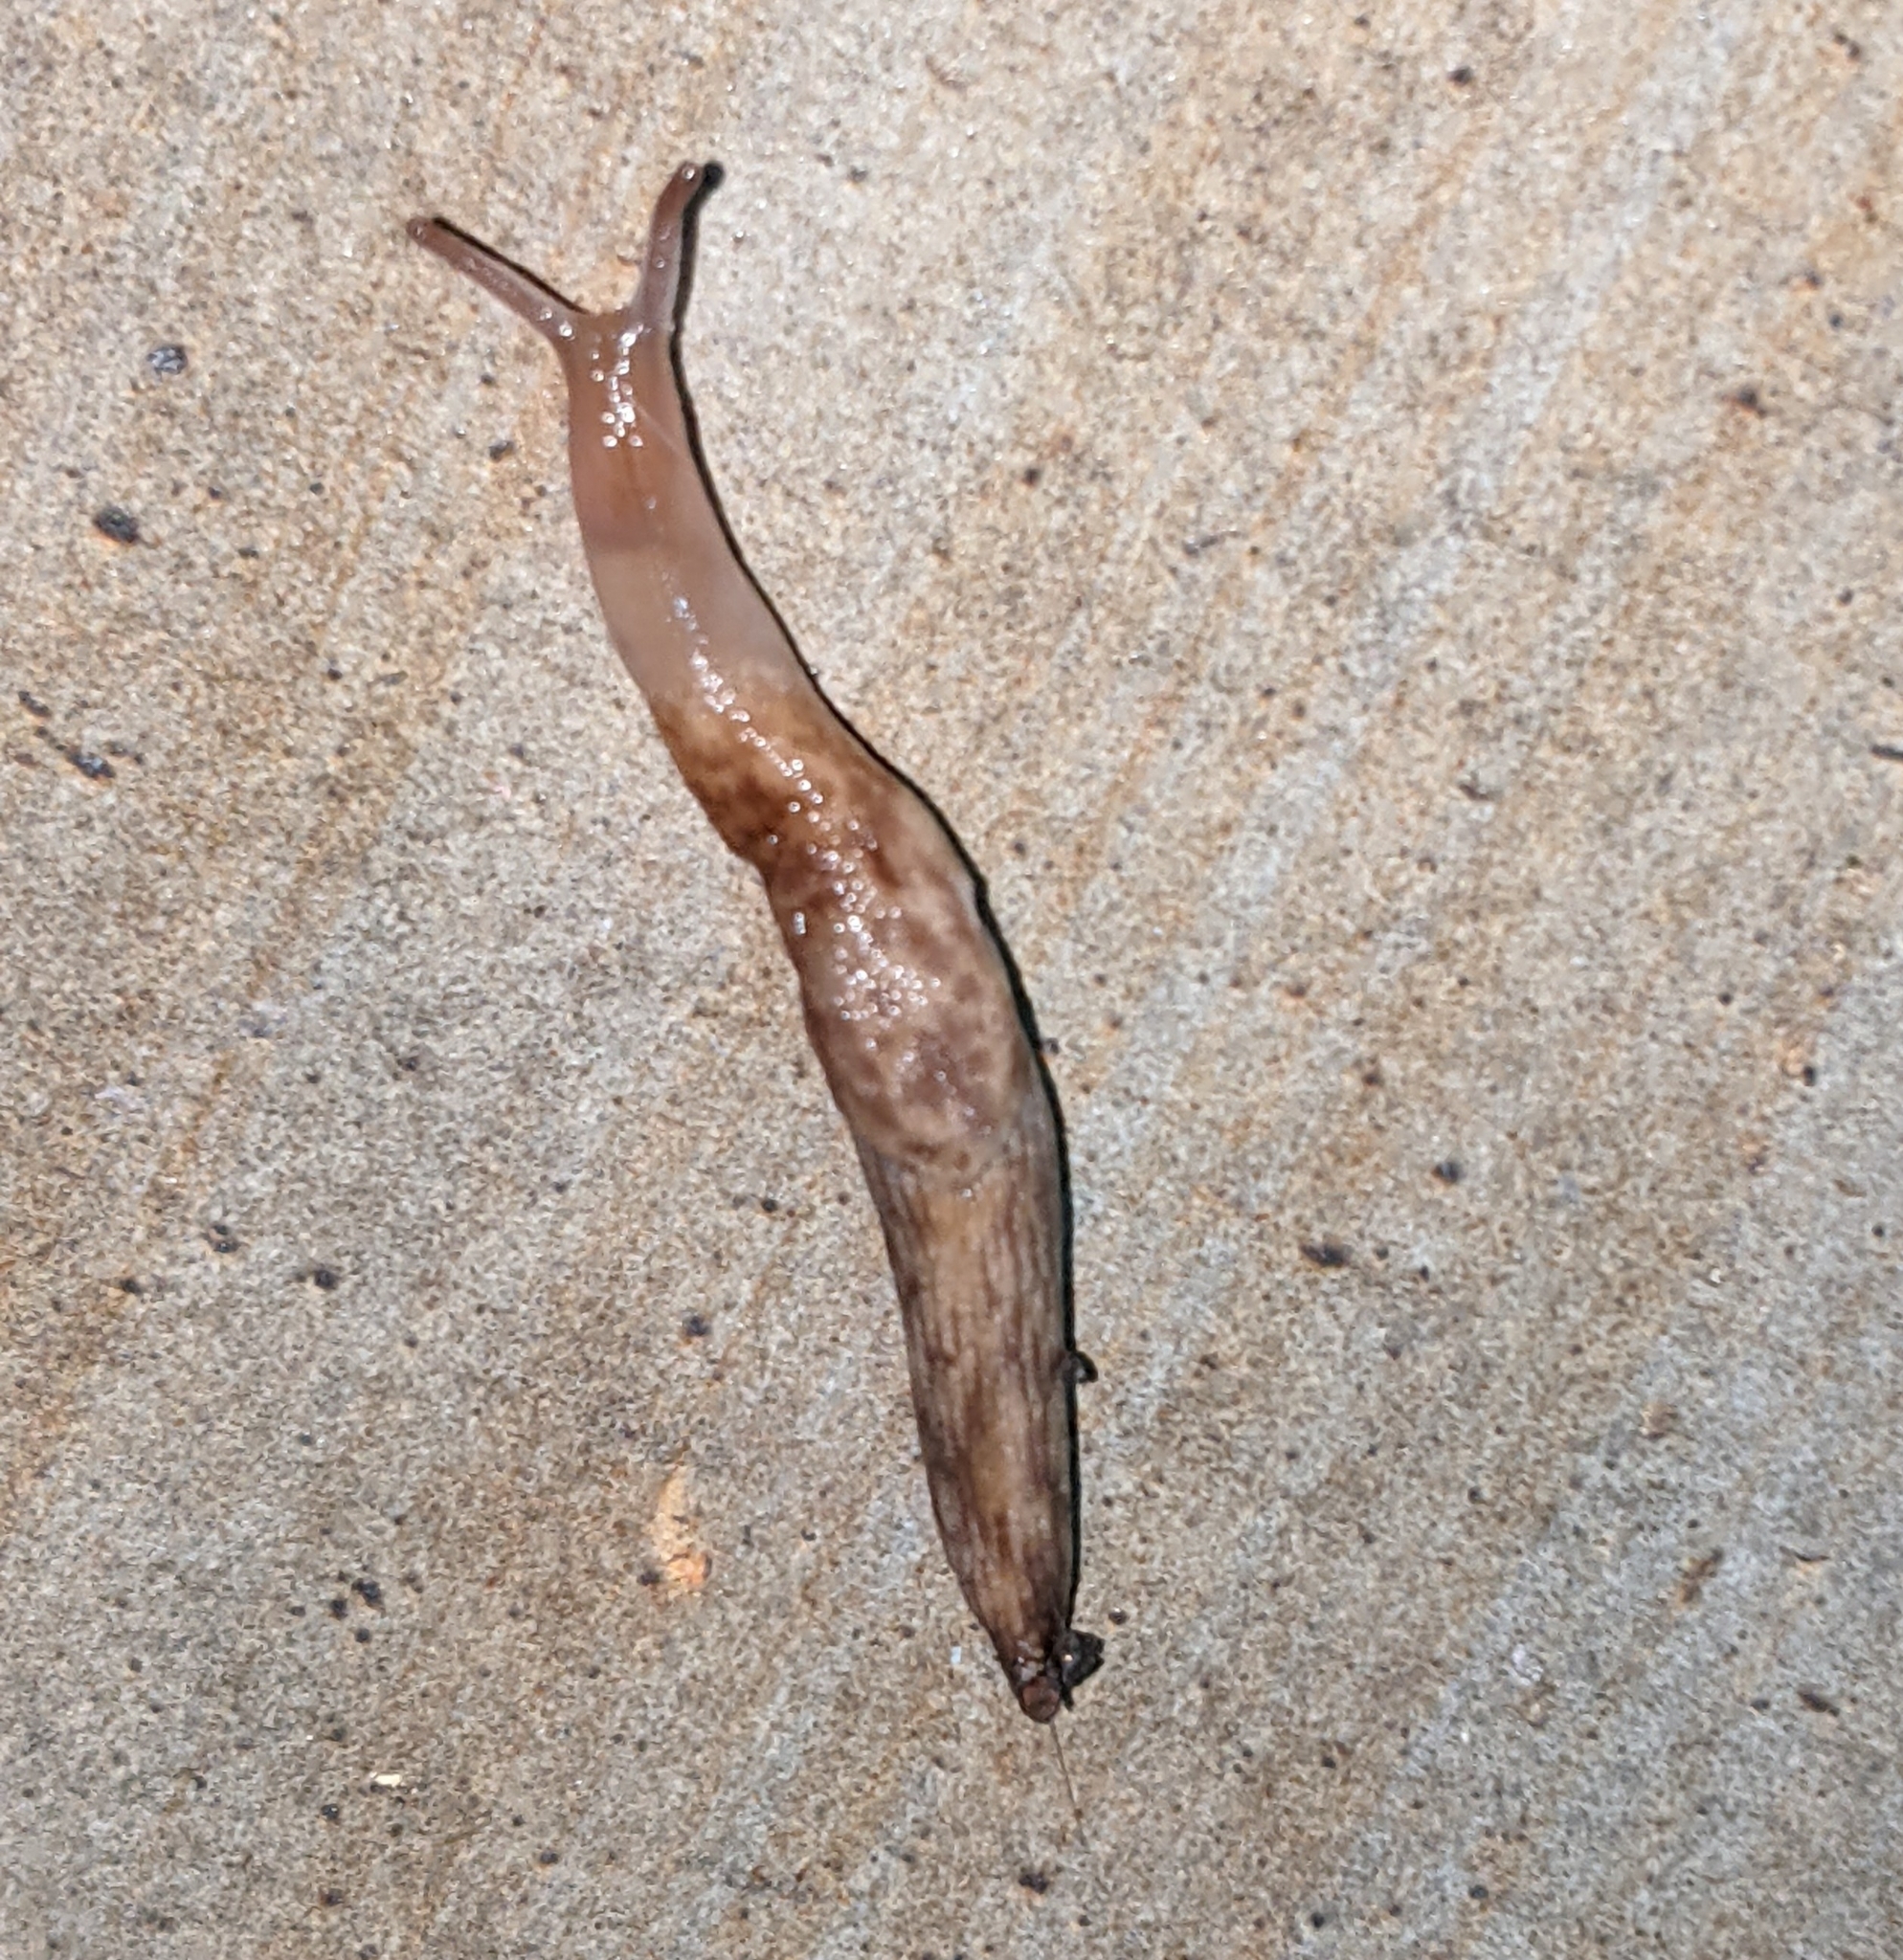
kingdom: Animalia
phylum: Mollusca
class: Gastropoda
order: Stylommatophora
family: Agriolimacidae
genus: Deroceras
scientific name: Deroceras reticulatum
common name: Gray field slug
